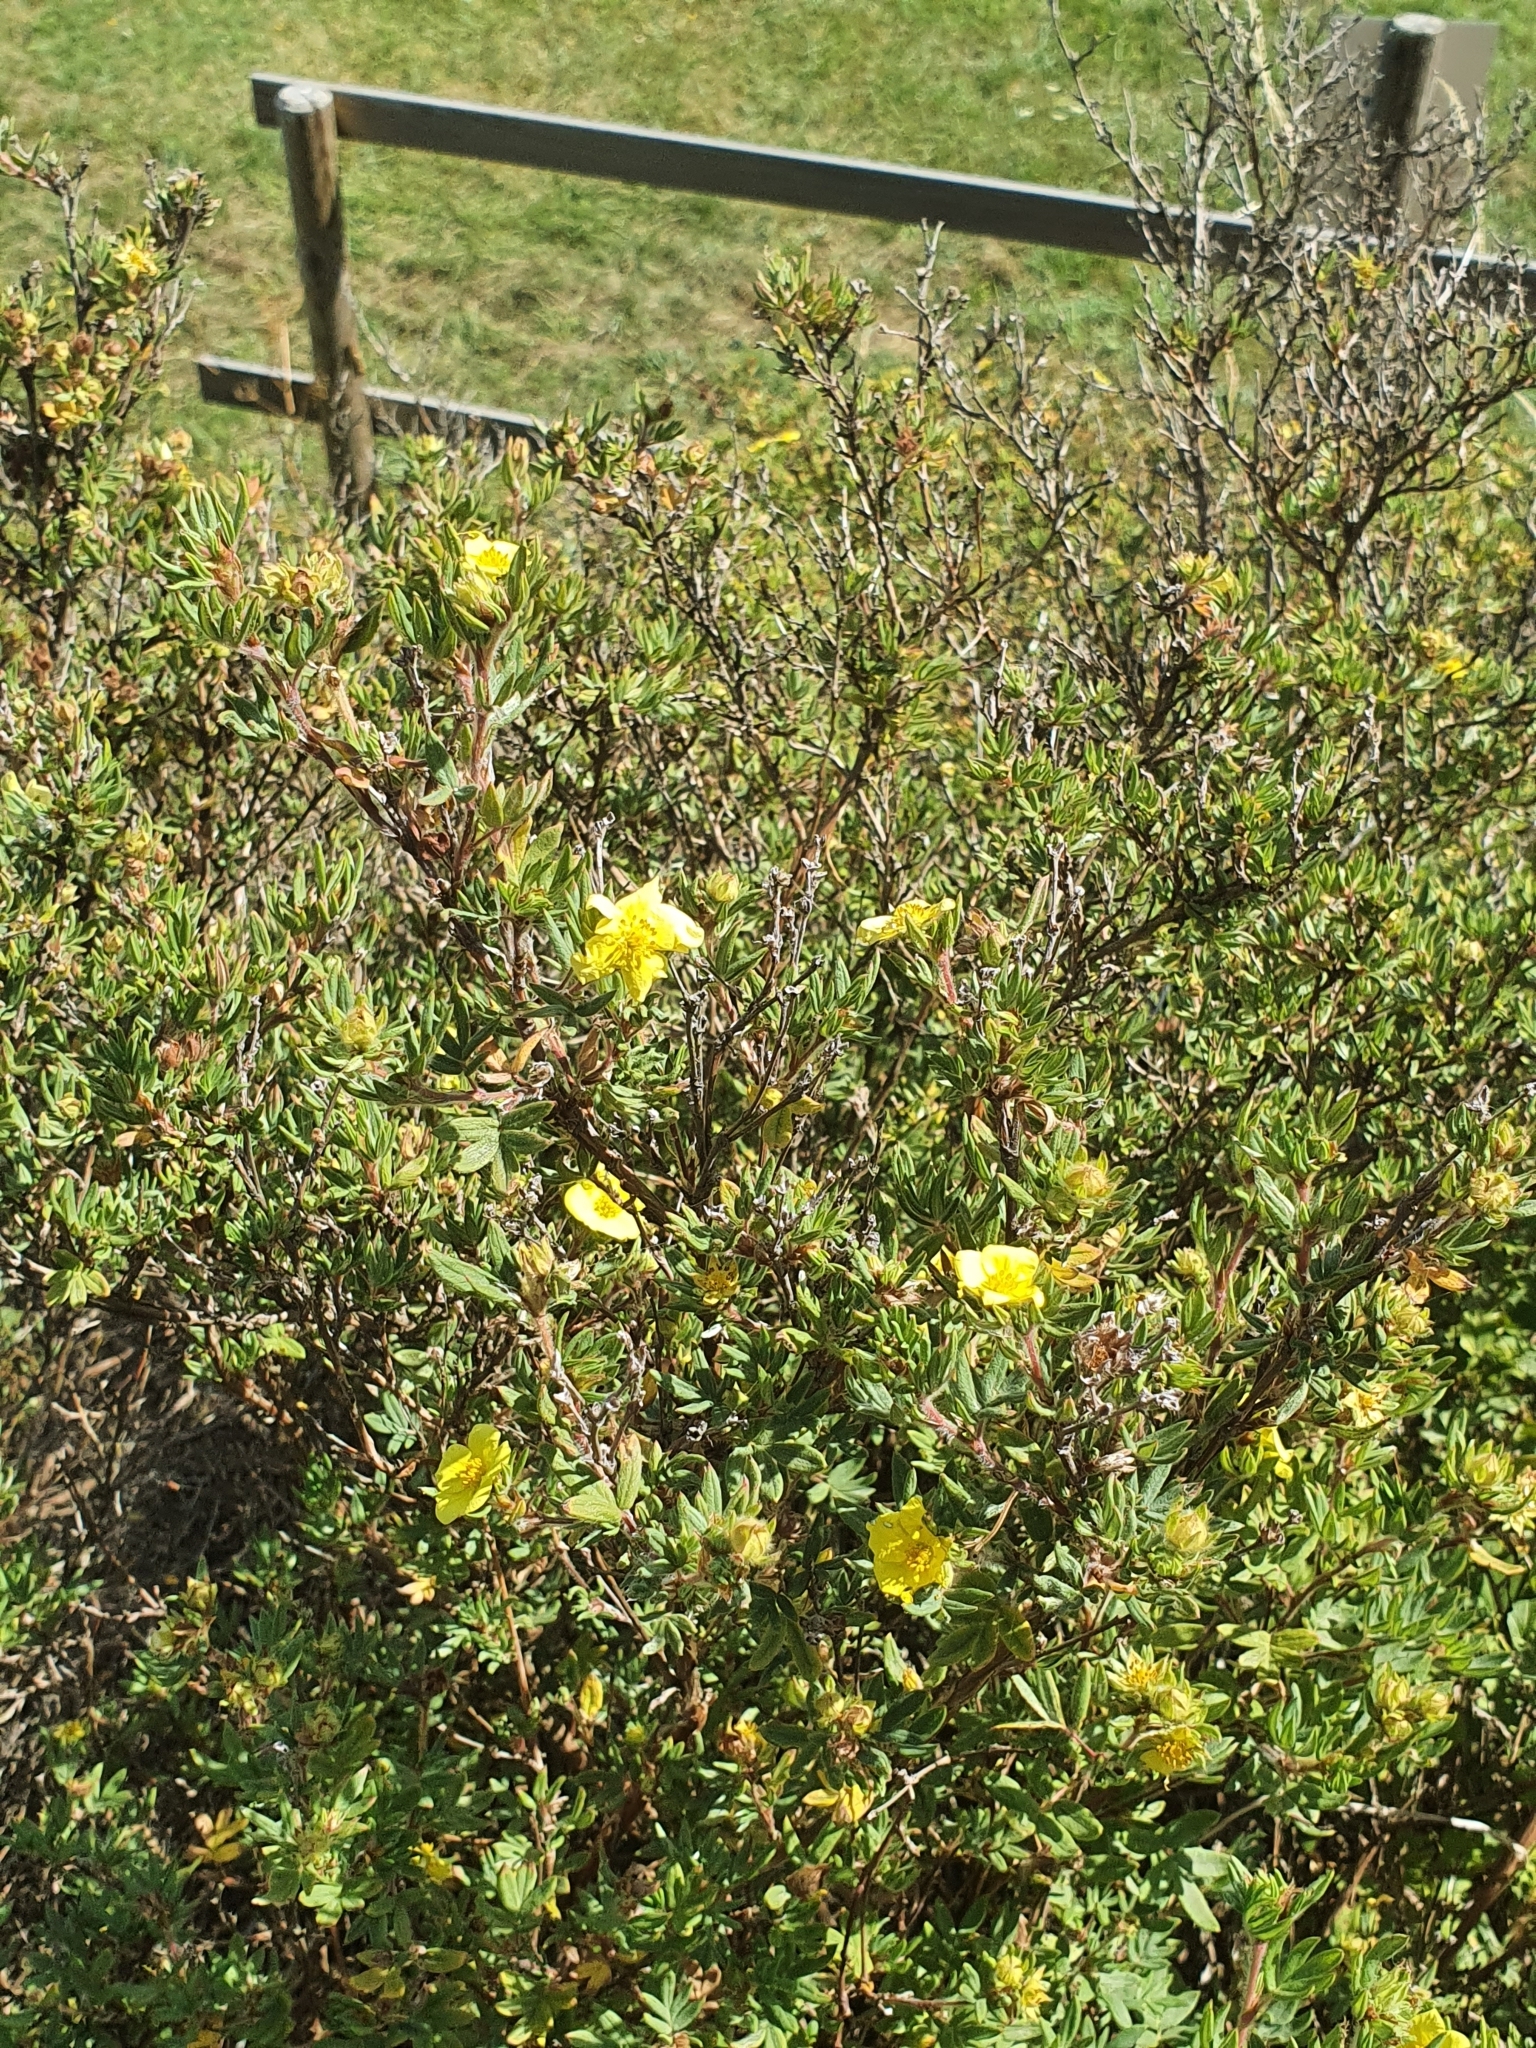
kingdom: Plantae
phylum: Tracheophyta
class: Magnoliopsida
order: Rosales
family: Rosaceae
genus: Dasiphora
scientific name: Dasiphora fruticosa
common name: Shrubby cinquefoil
